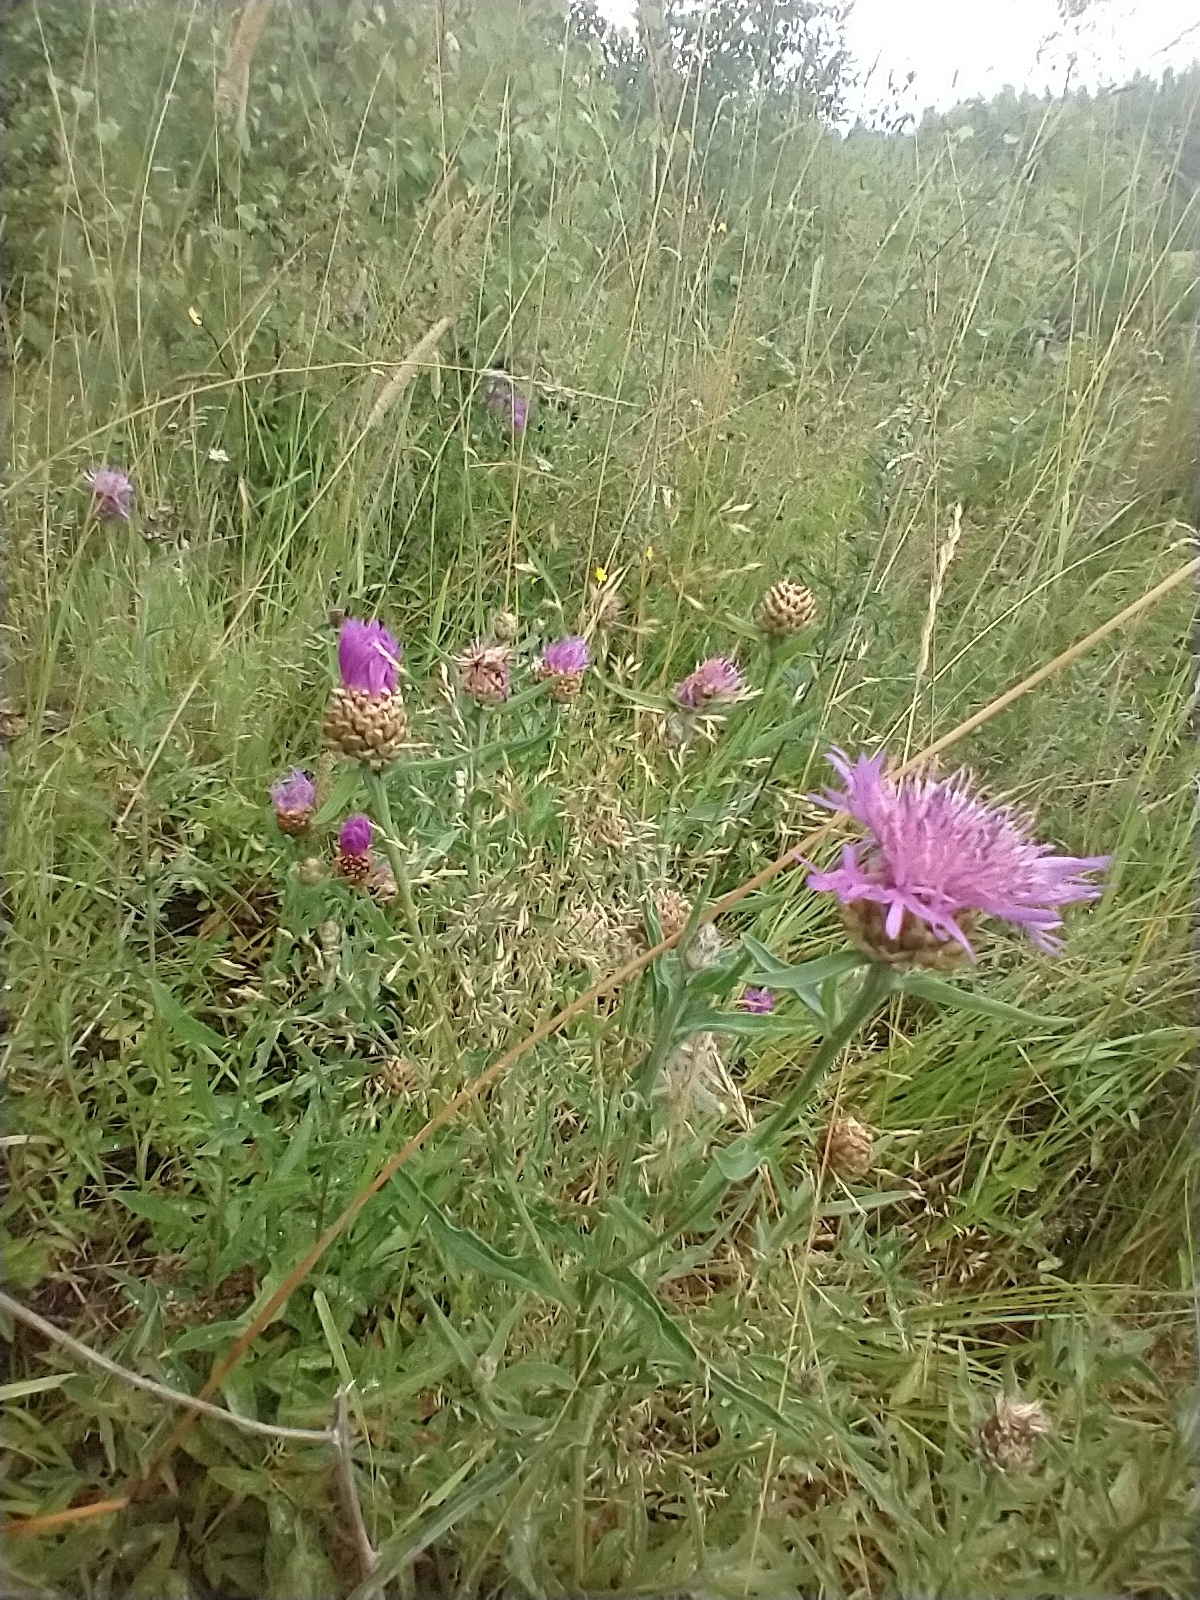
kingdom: Plantae
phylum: Tracheophyta
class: Magnoliopsida
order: Asterales
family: Asteraceae
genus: Centaurea
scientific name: Centaurea jacea
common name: Brown knapweed
